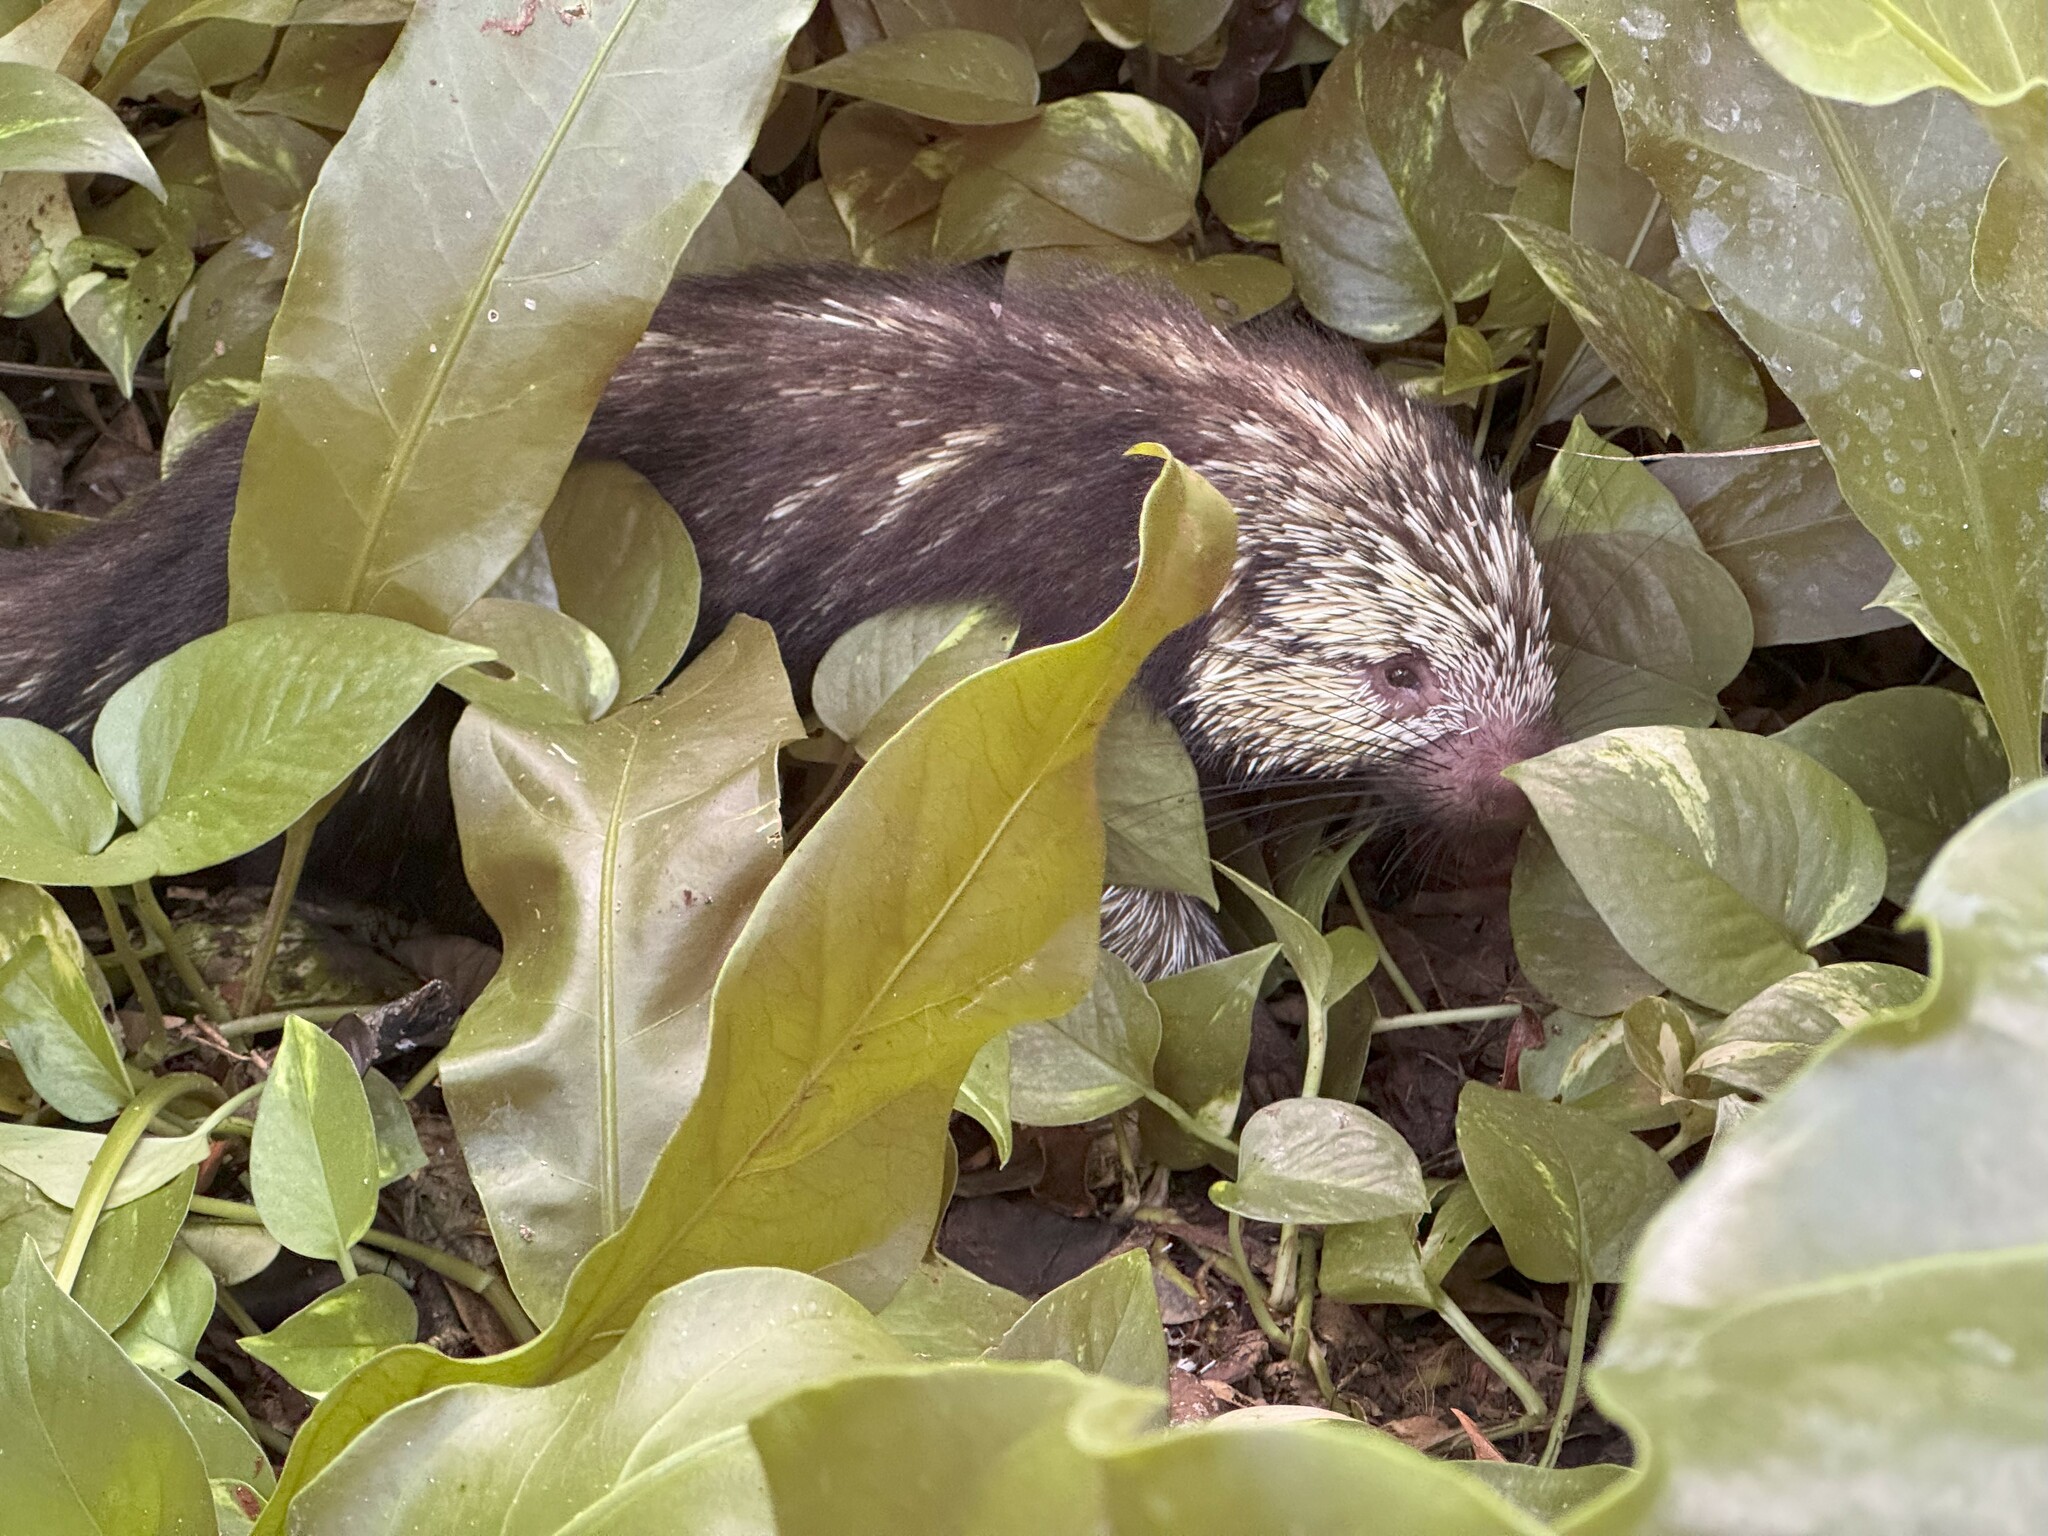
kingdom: Animalia
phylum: Chordata
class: Mammalia
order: Rodentia
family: Erethizontidae
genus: Sphiggurus
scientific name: Sphiggurus mexicanus
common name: Mexican hairy dwarf porcupine
